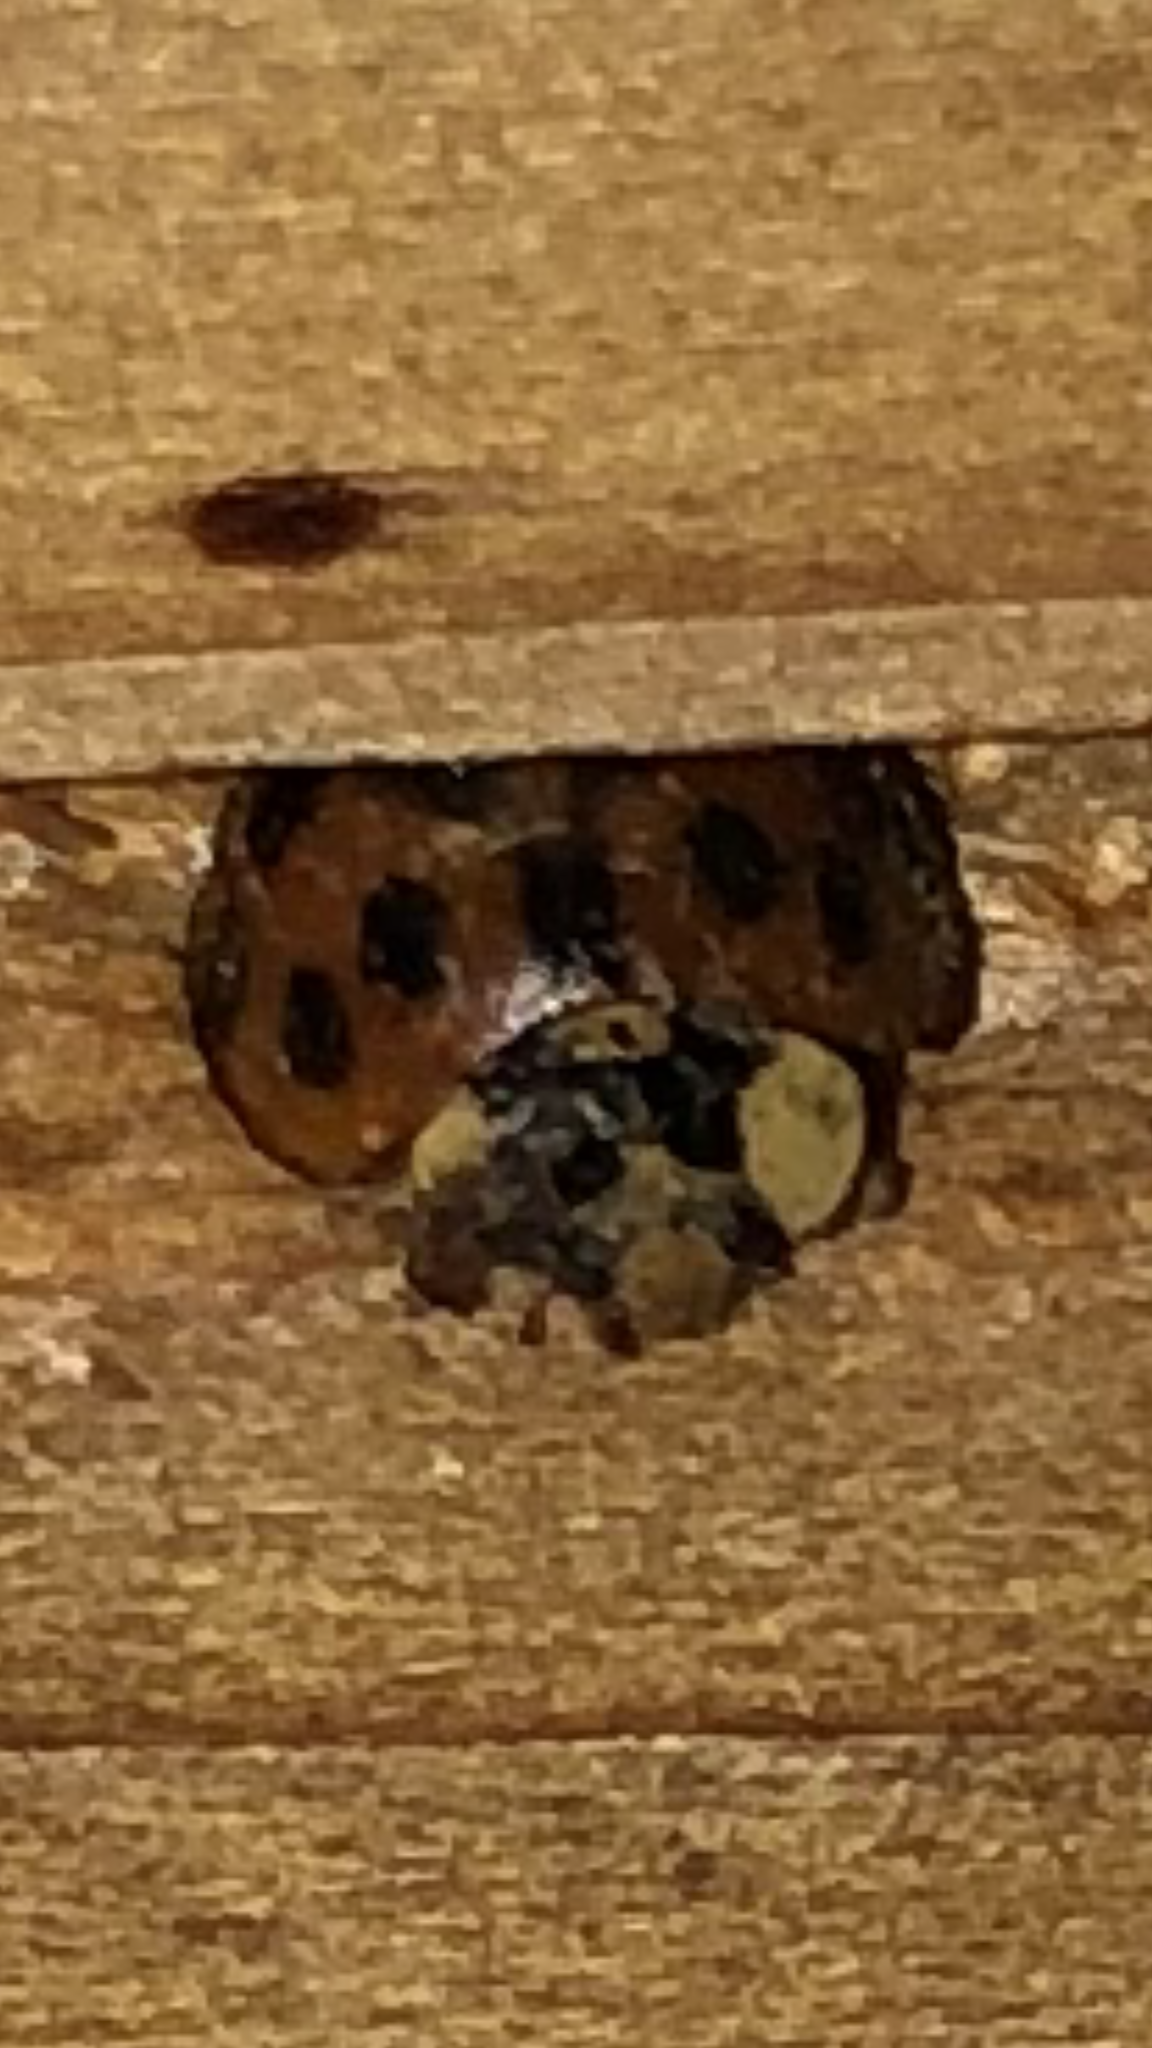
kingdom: Animalia
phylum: Arthropoda
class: Insecta
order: Coleoptera
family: Coccinellidae
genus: Harmonia
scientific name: Harmonia axyridis
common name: Harlequin ladybird
